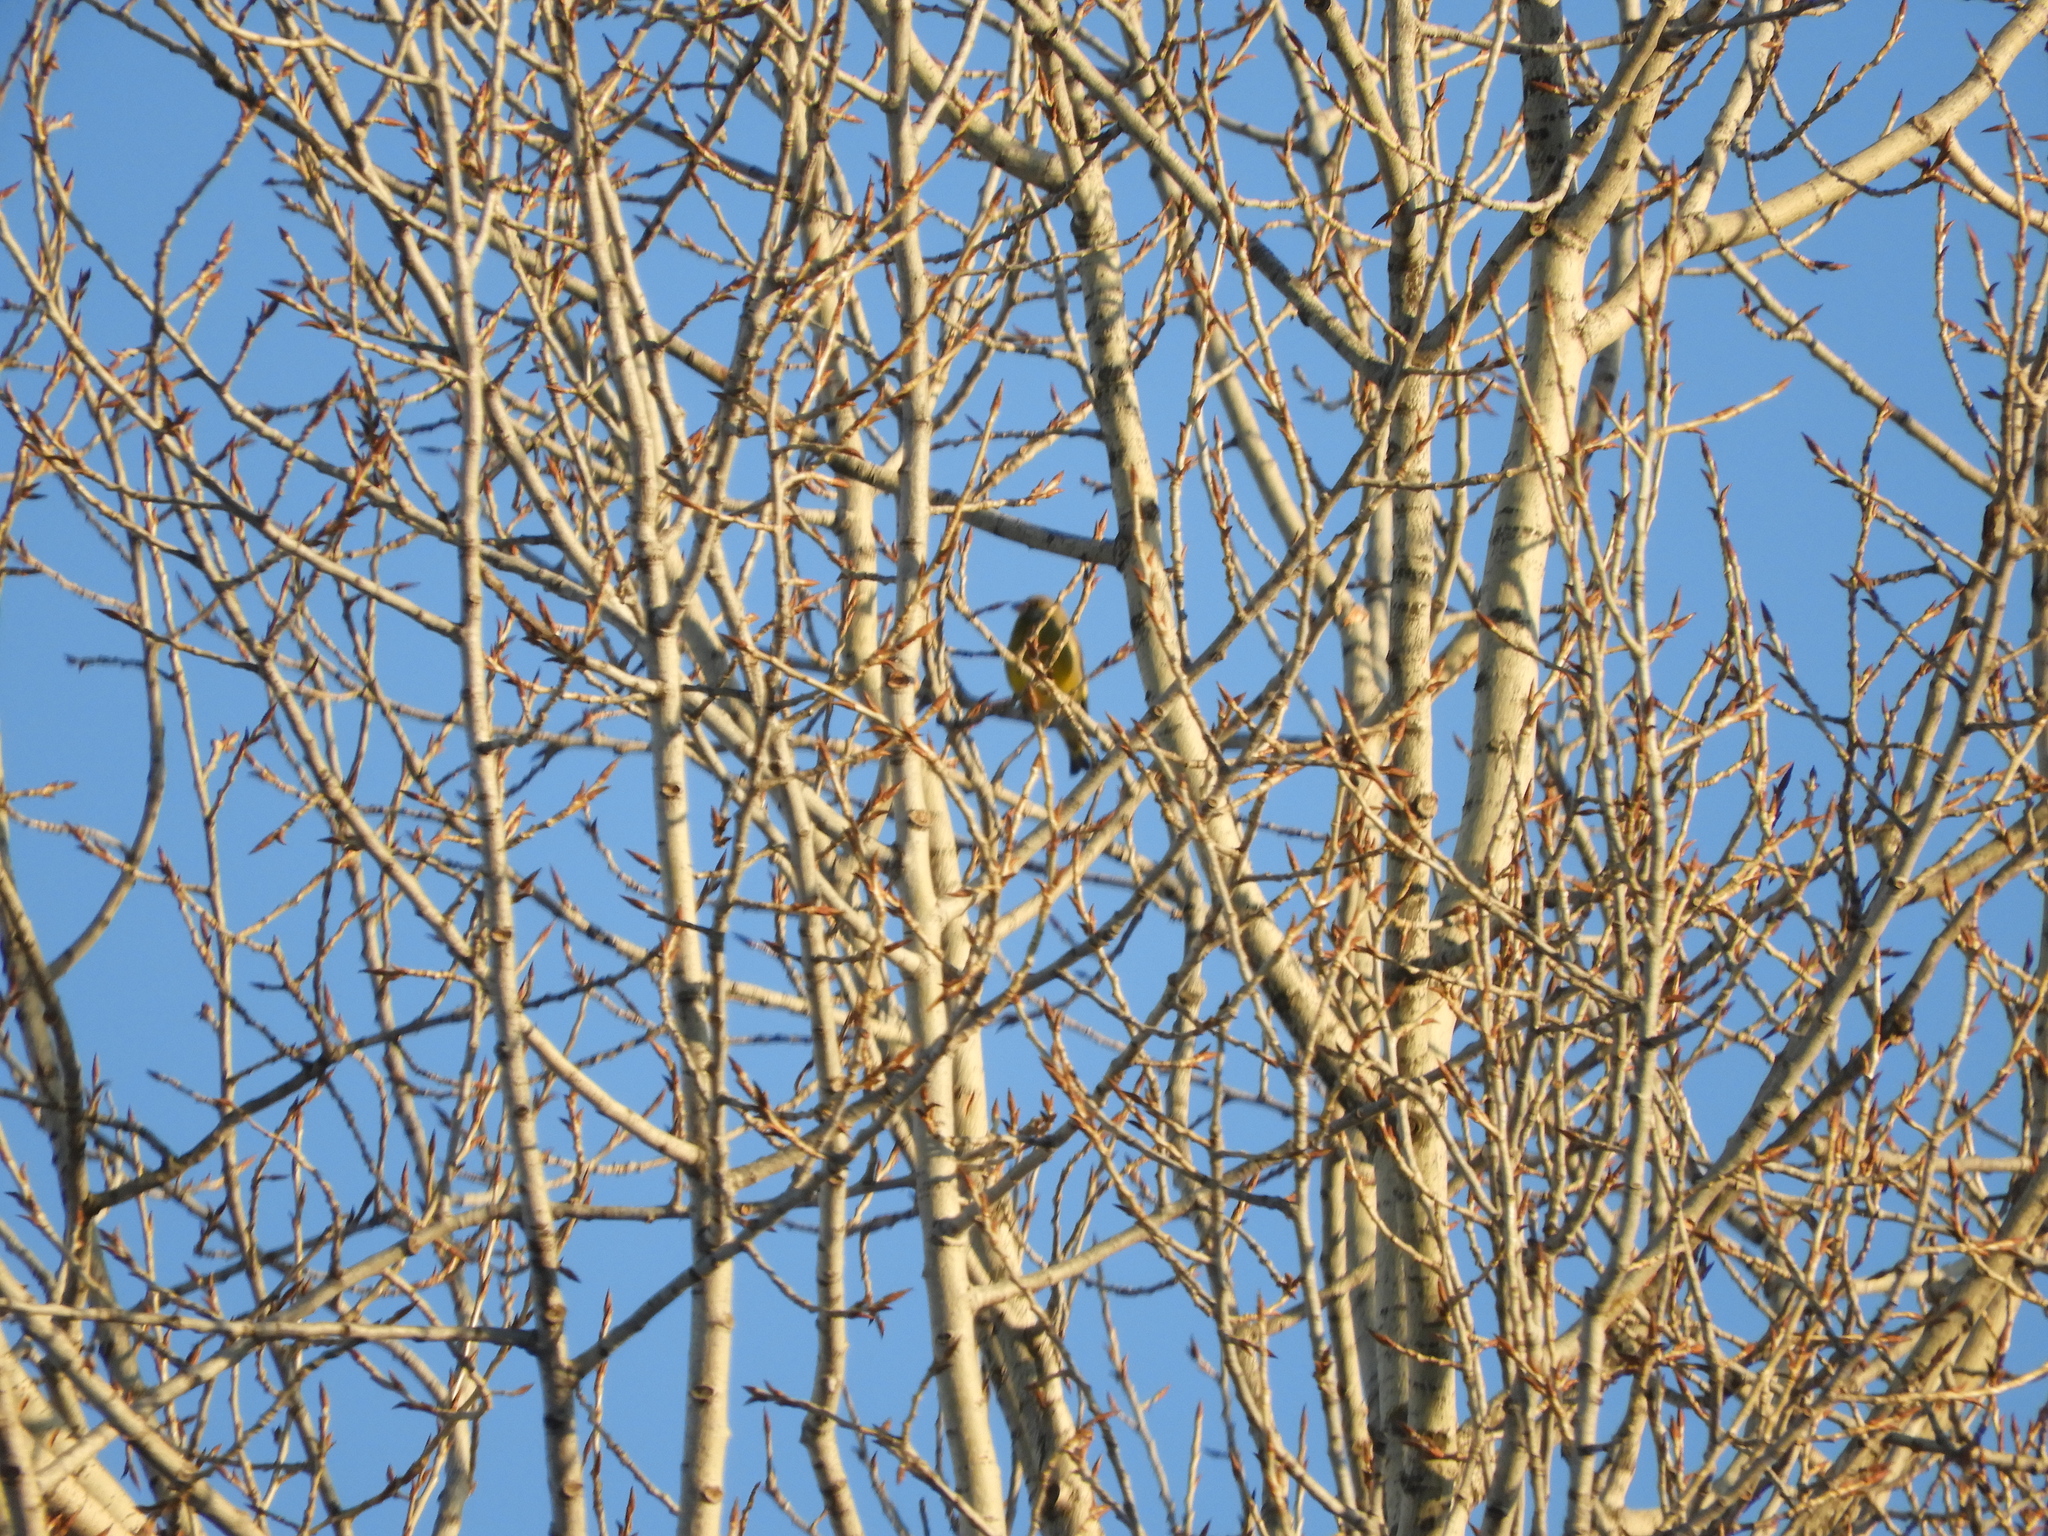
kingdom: Plantae
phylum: Tracheophyta
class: Liliopsida
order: Poales
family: Poaceae
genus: Chloris
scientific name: Chloris chloris
